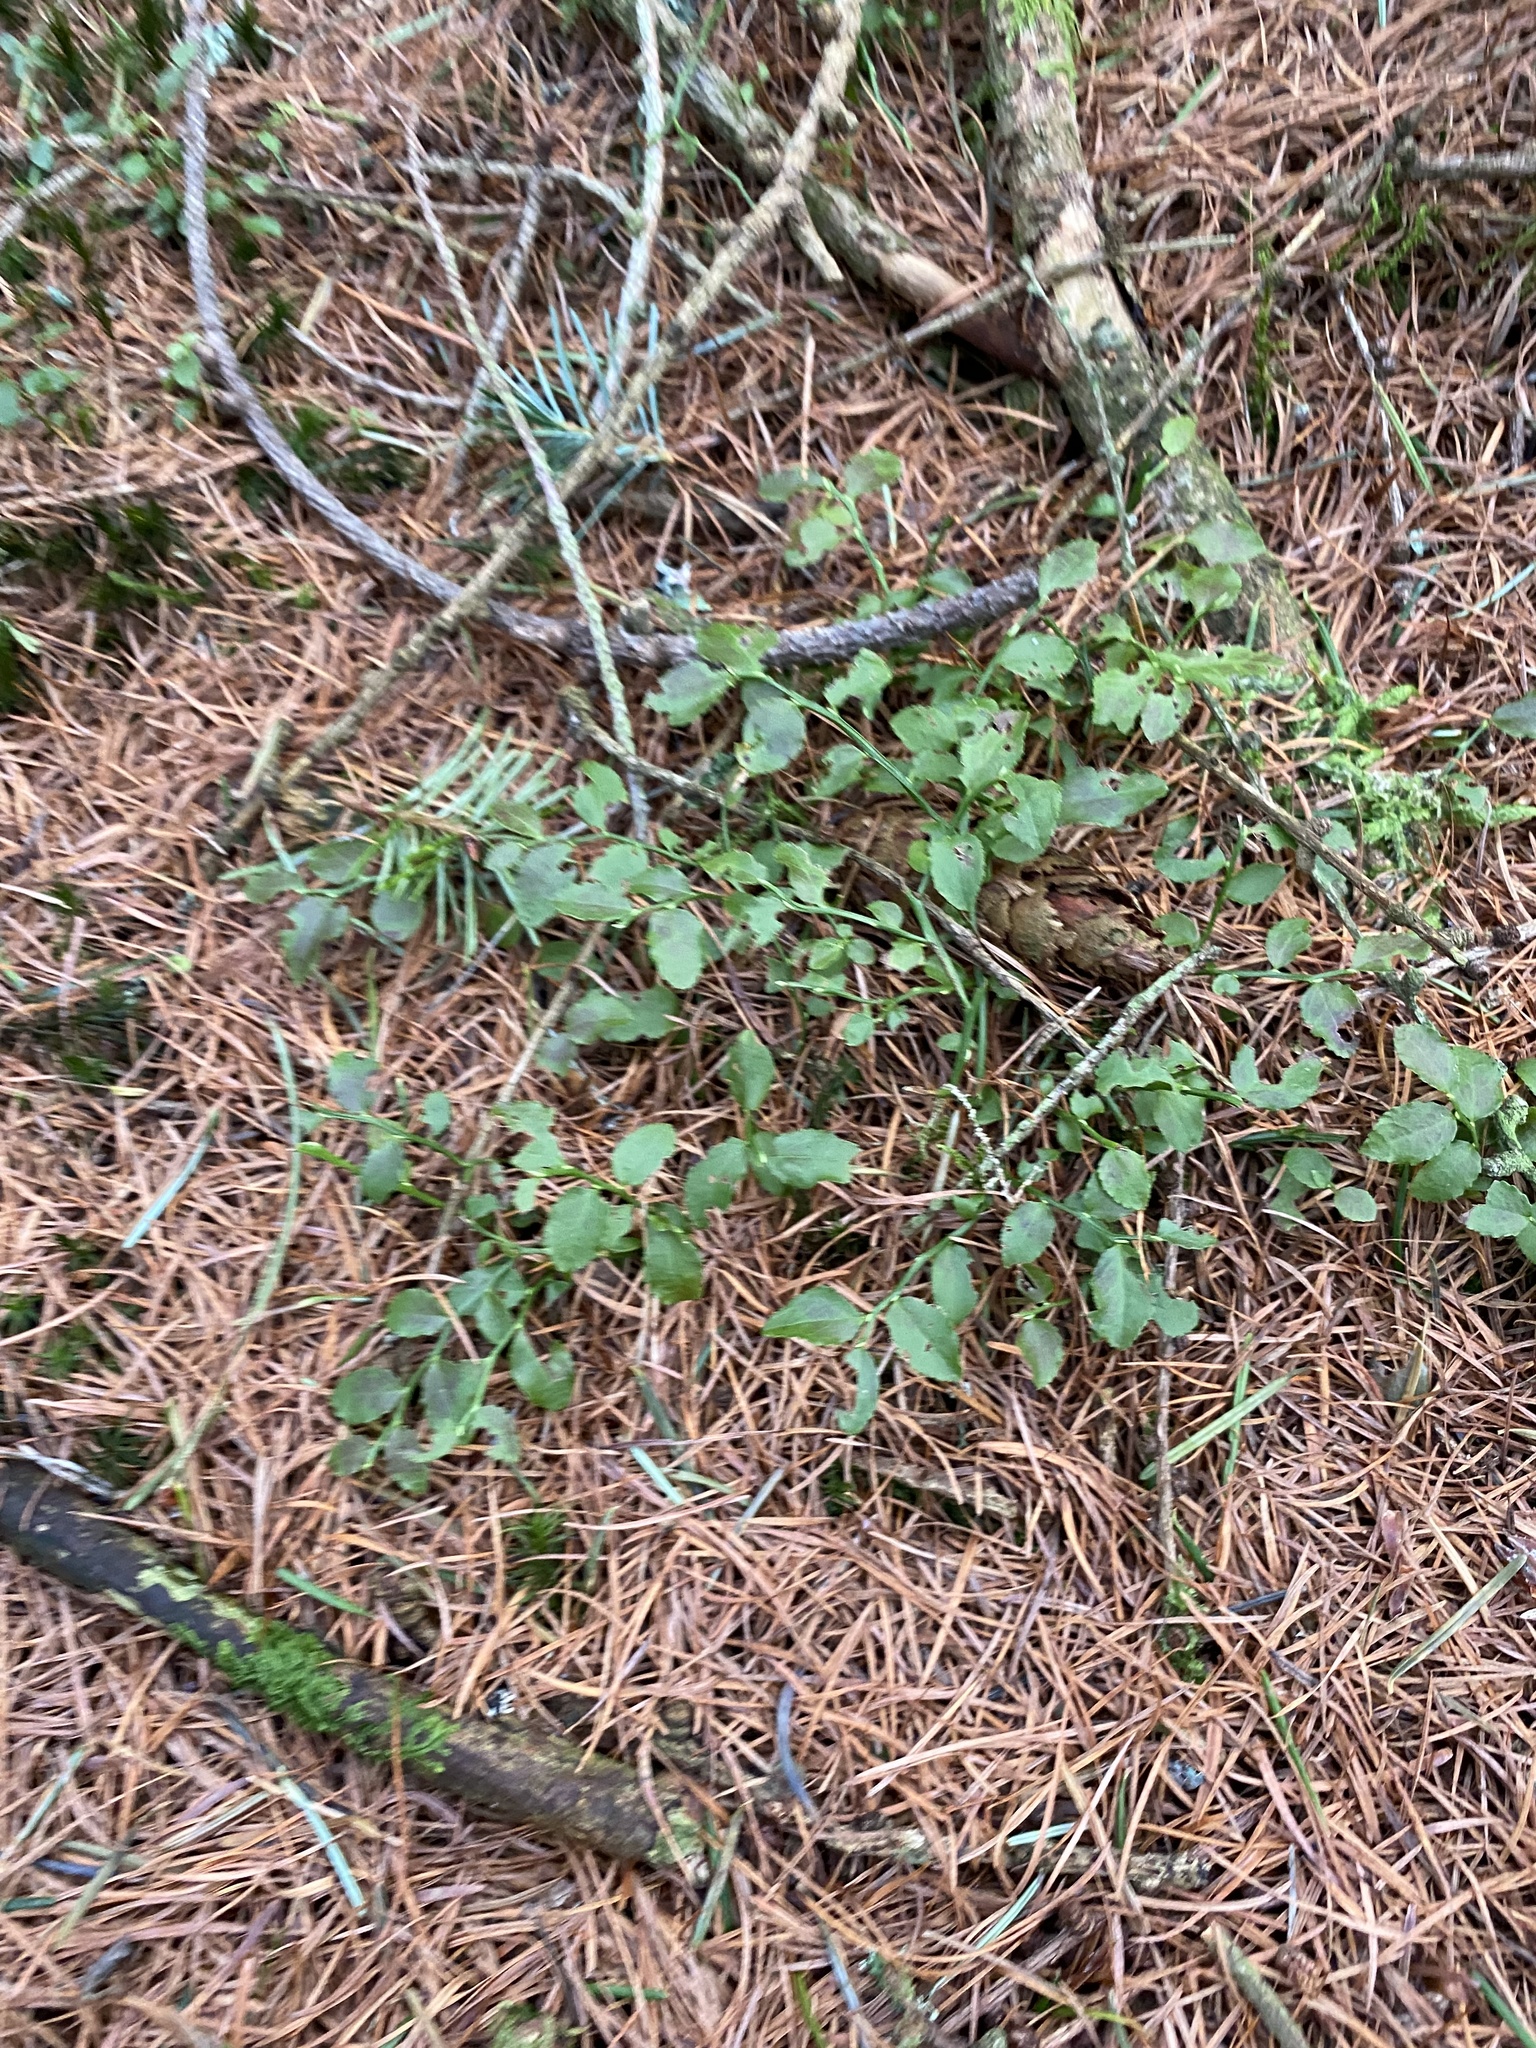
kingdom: Plantae
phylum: Tracheophyta
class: Magnoliopsida
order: Ericales
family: Ericaceae
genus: Vaccinium
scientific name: Vaccinium myrtillus
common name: Bilberry
